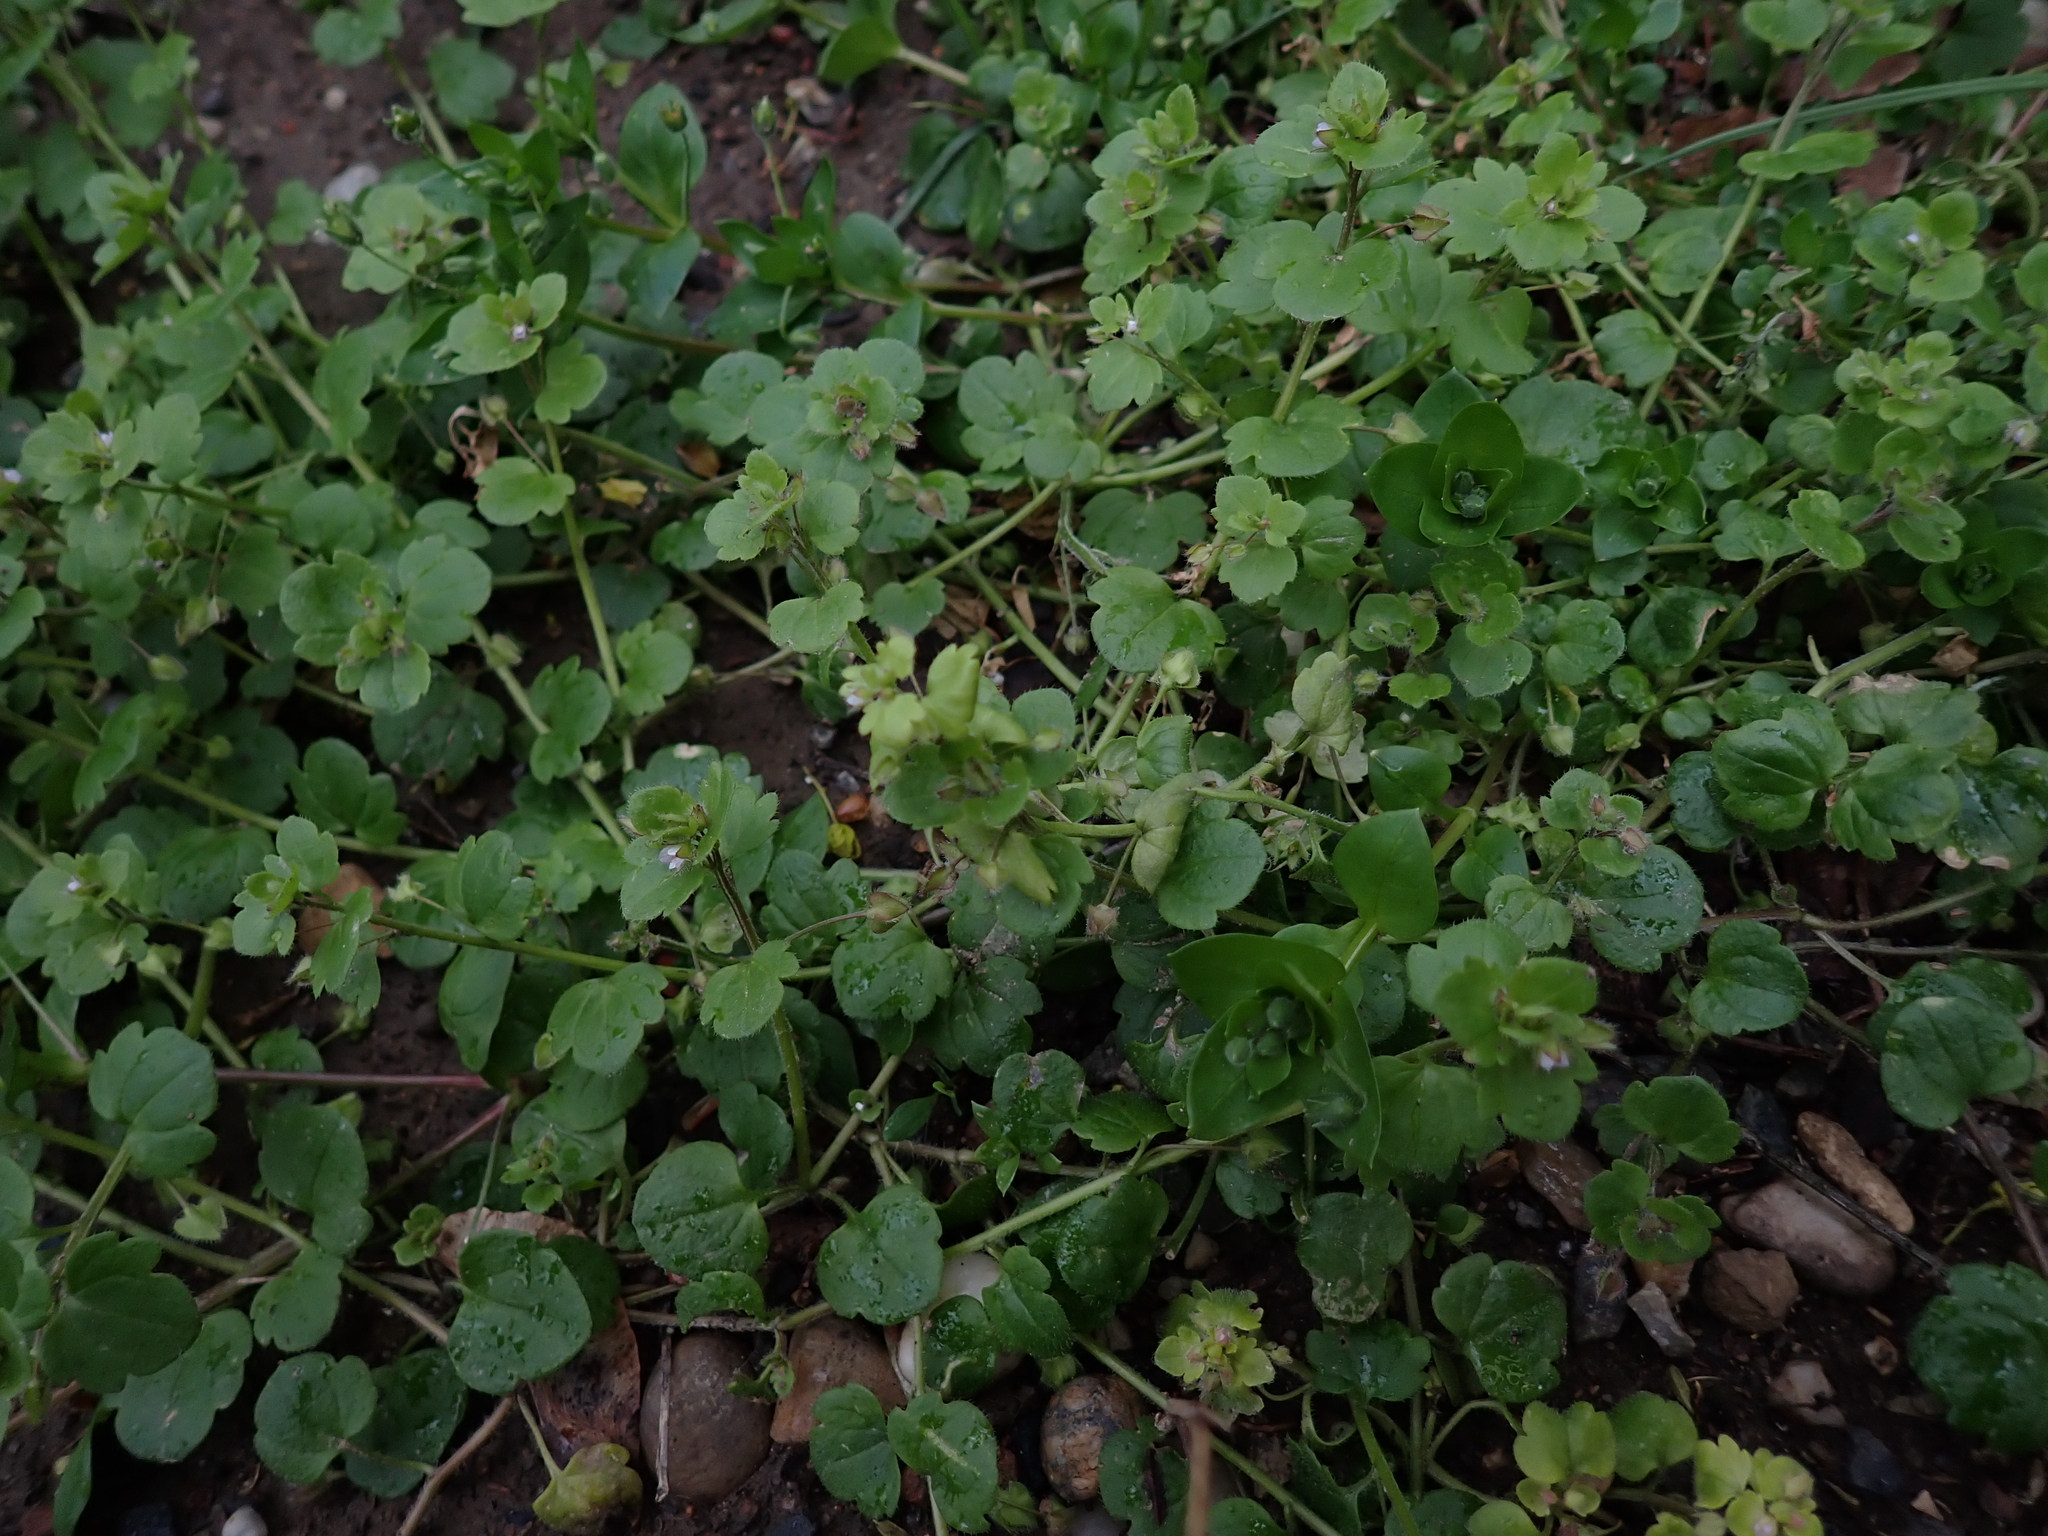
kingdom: Plantae
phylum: Tracheophyta
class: Magnoliopsida
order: Lamiales
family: Plantaginaceae
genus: Veronica
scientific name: Veronica sublobata
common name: False ivy-leaved speedwell
